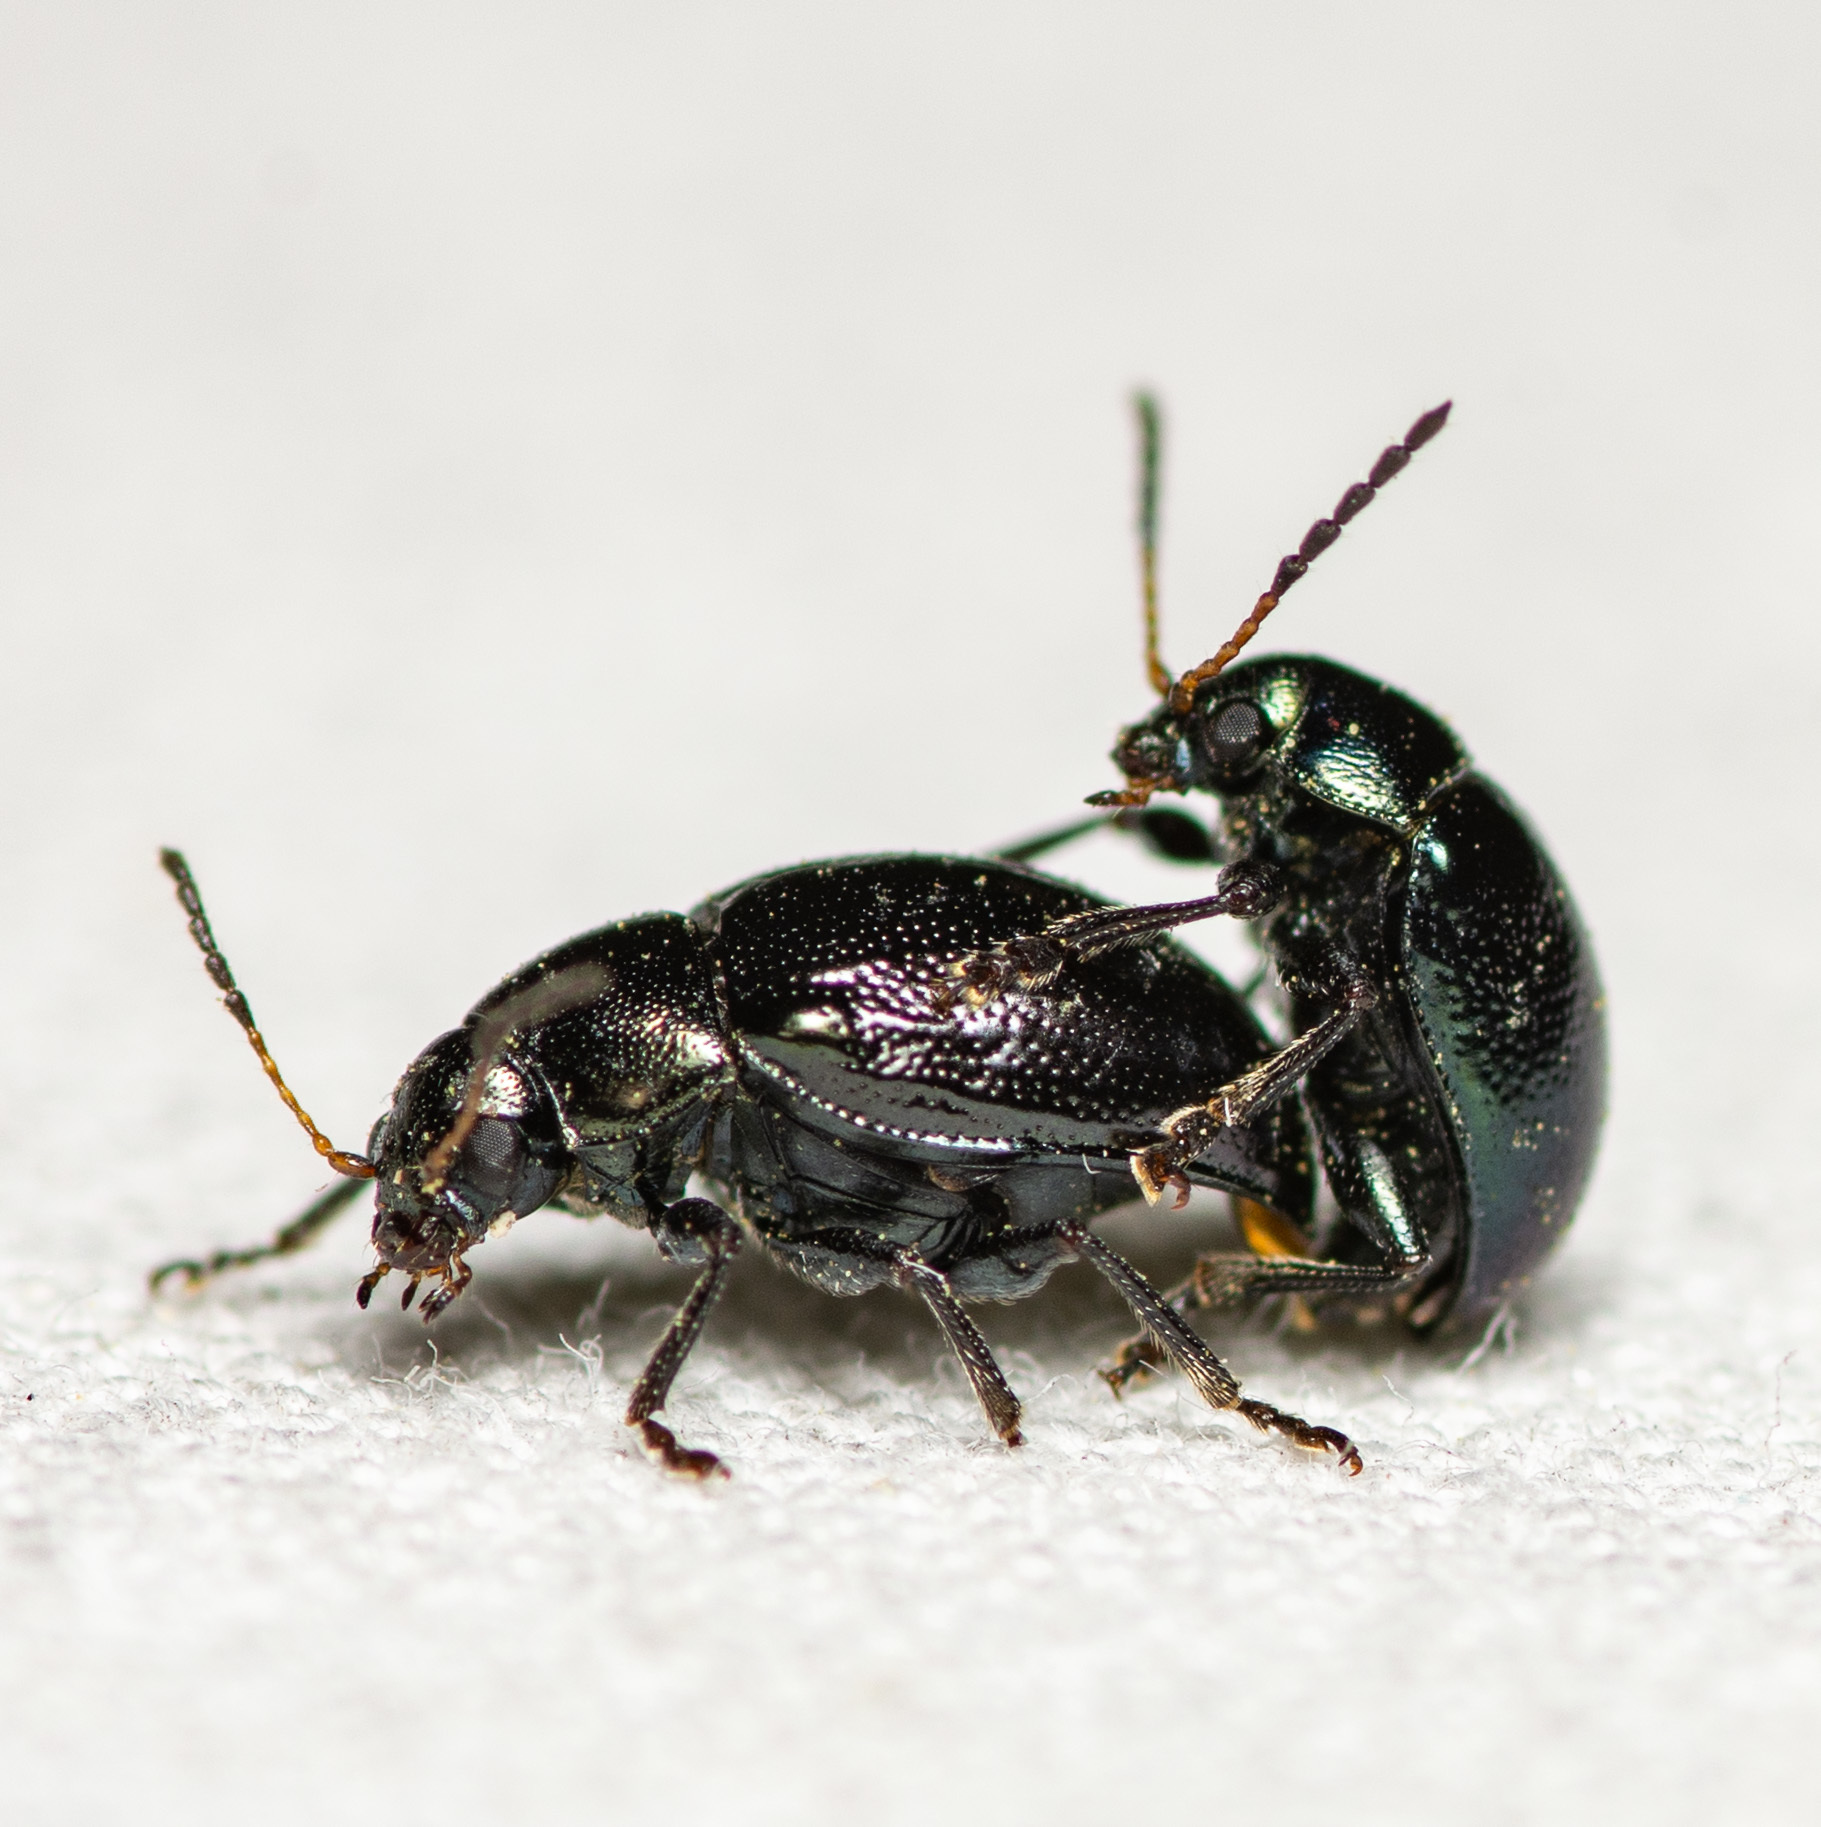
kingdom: Animalia
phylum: Arthropoda
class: Insecta
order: Coleoptera
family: Chrysomelidae
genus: Brachypnoea
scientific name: Brachypnoea lecontei
